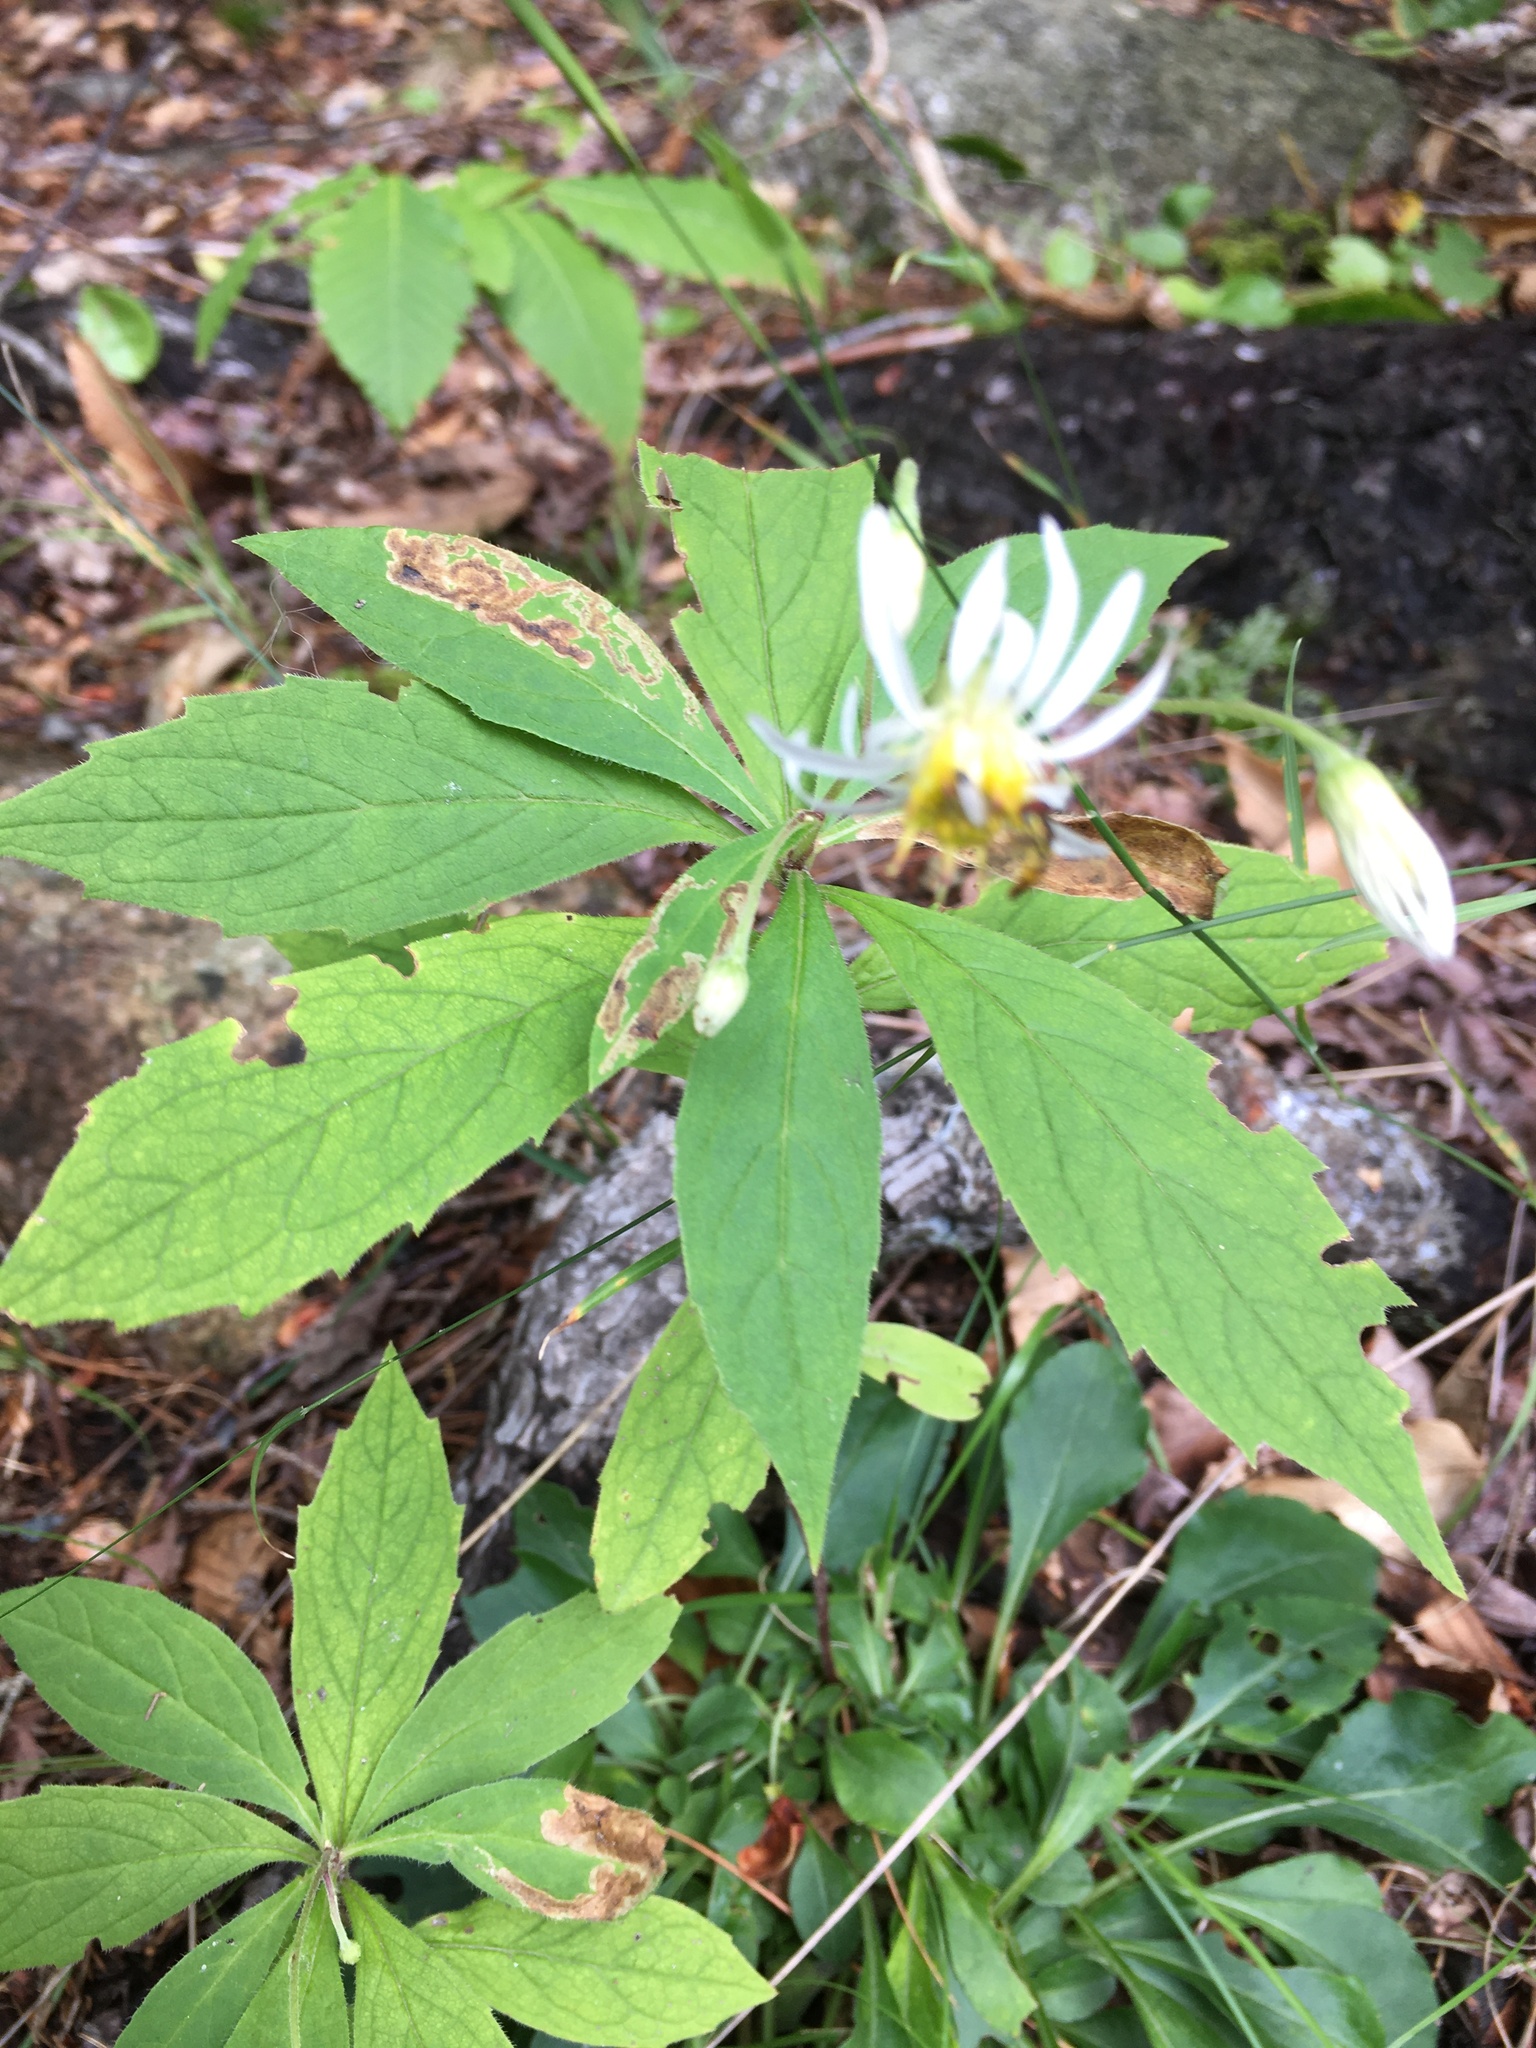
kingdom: Plantae
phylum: Tracheophyta
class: Magnoliopsida
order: Asterales
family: Asteraceae
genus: Oclemena
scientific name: Oclemena acuminata
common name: Mountain aster
